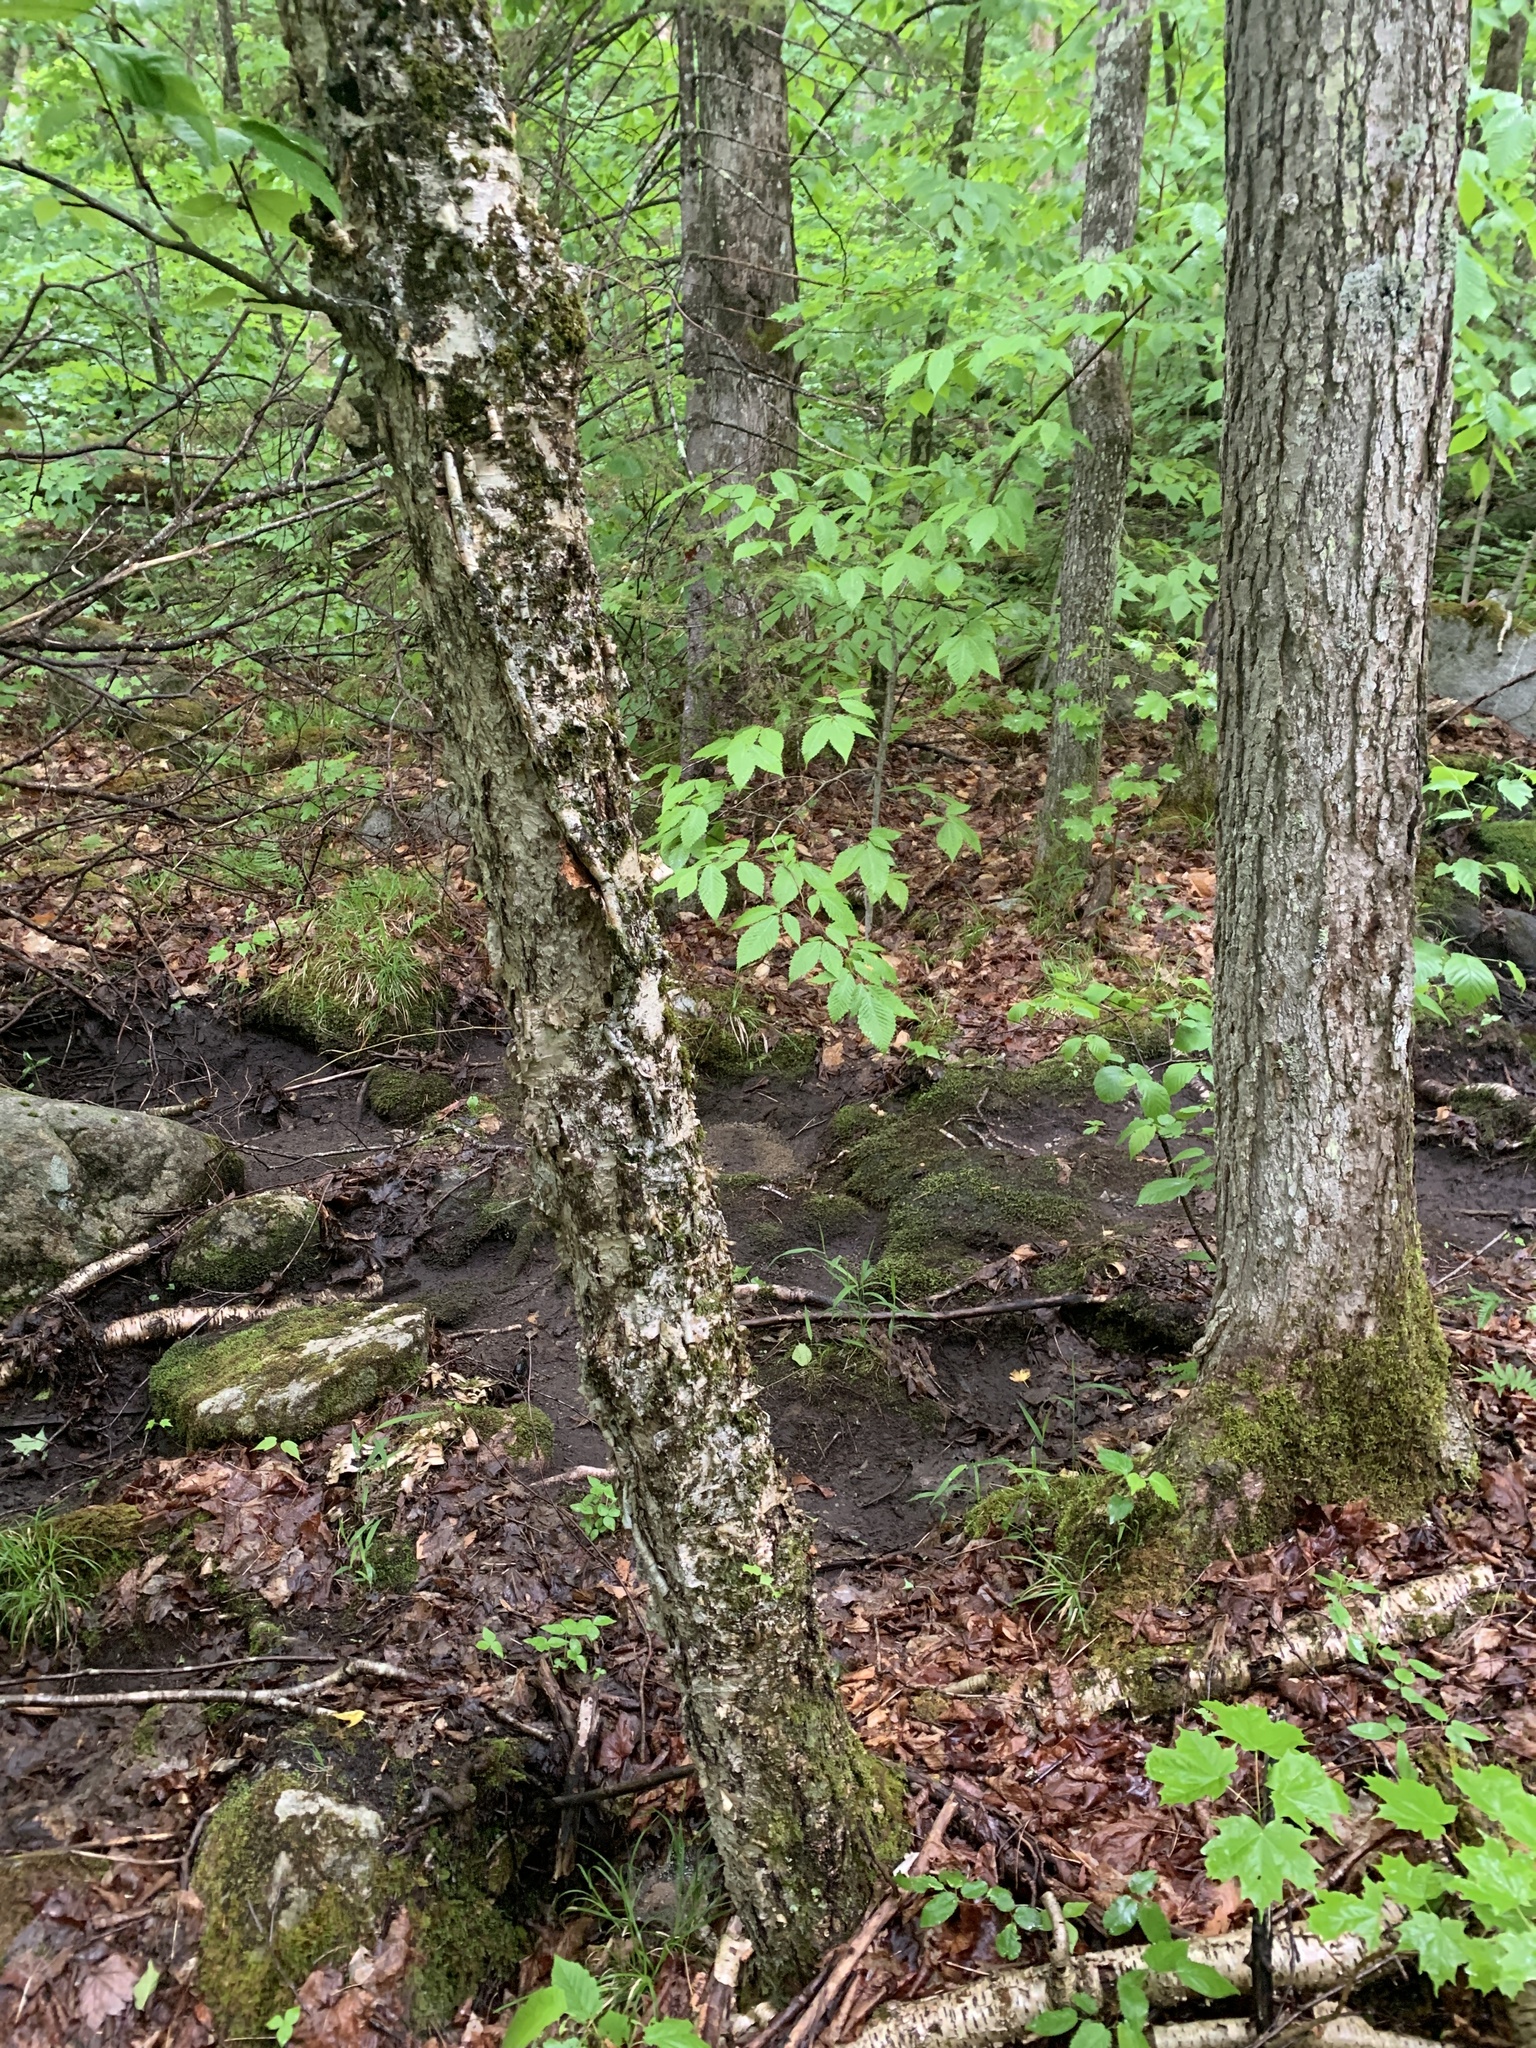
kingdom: Plantae
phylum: Tracheophyta
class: Magnoliopsida
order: Fagales
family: Betulaceae
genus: Betula
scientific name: Betula alleghaniensis
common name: Yellow birch
